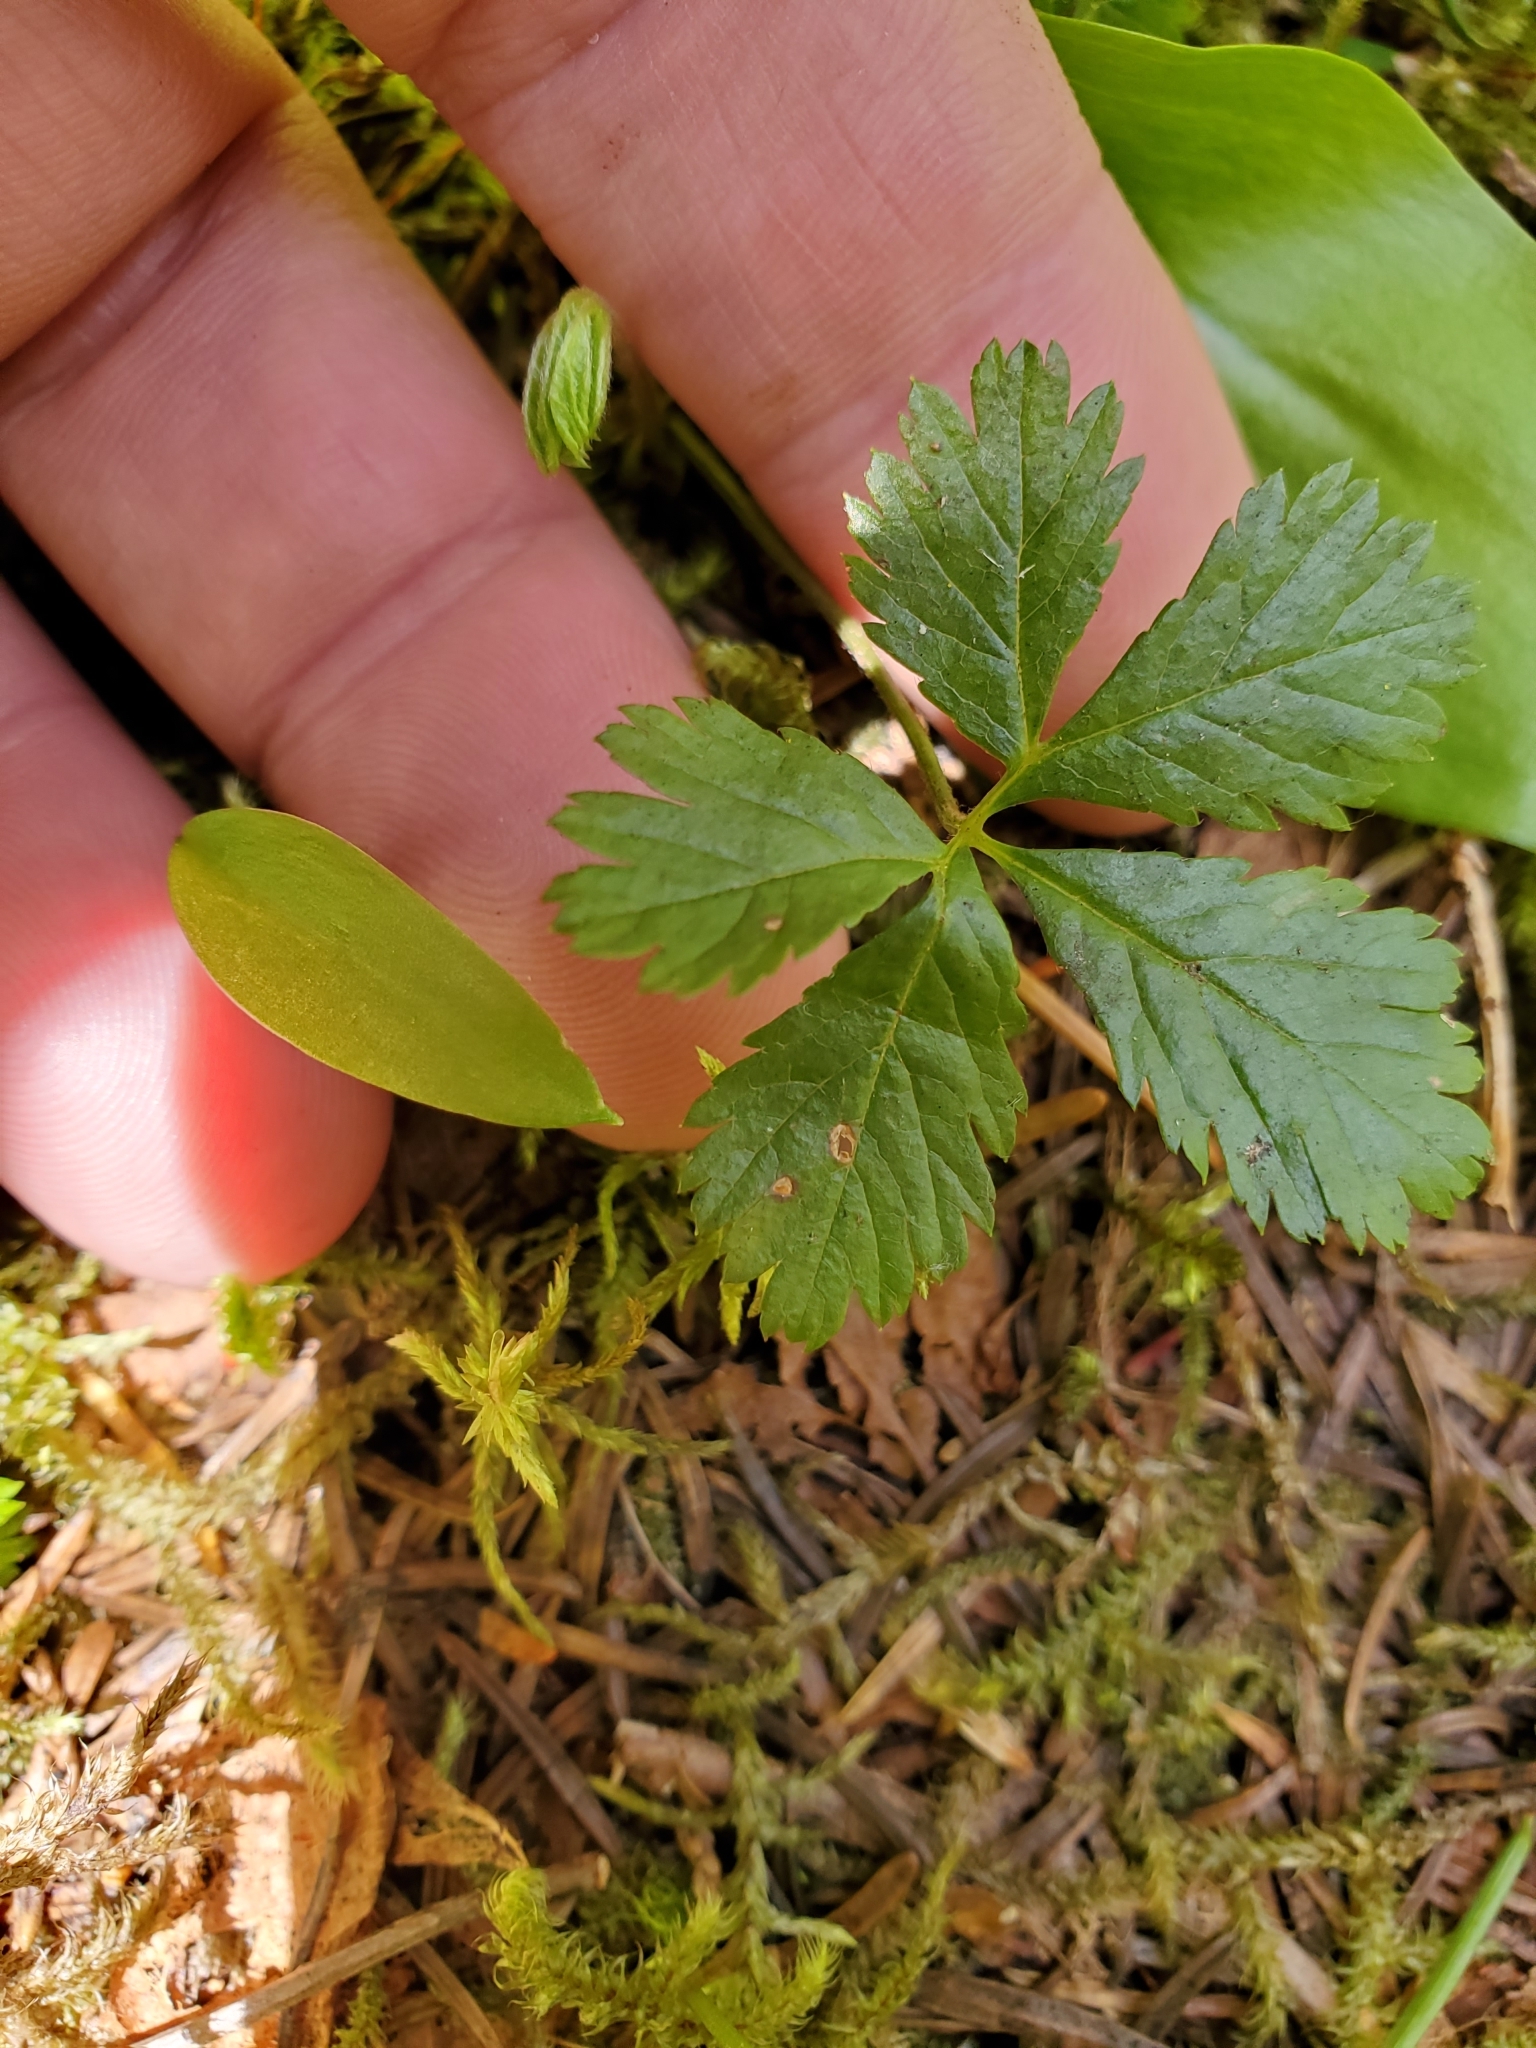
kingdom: Plantae
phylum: Tracheophyta
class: Magnoliopsida
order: Rosales
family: Rosaceae
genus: Rubus
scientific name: Rubus pedatus
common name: Creeping raspberry
